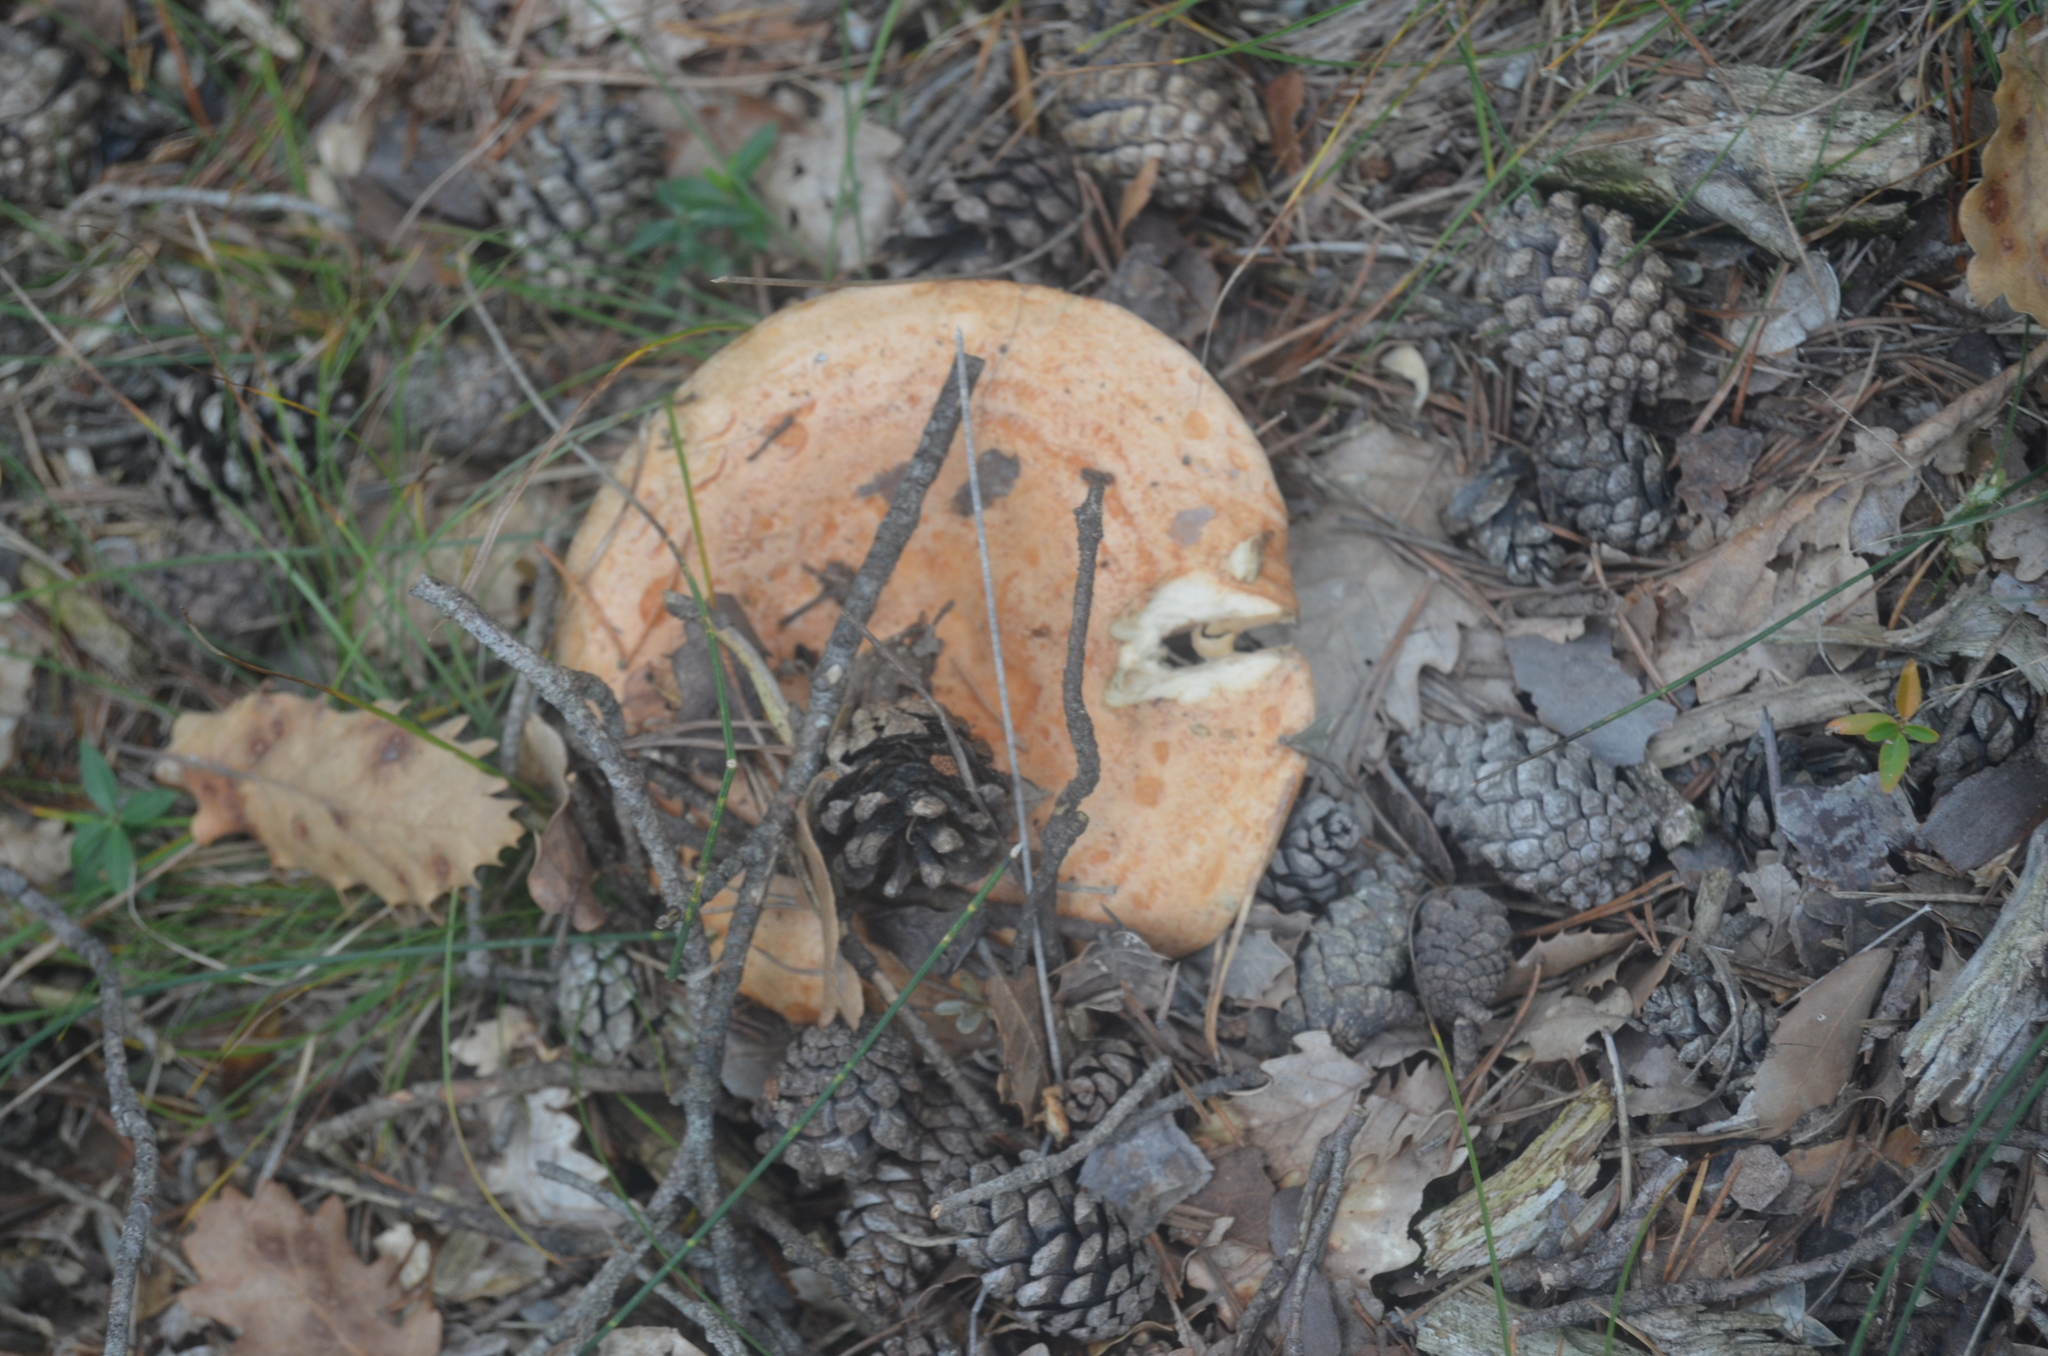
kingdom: Fungi
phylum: Basidiomycota
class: Agaricomycetes
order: Russulales
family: Russulaceae
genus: Lactarius
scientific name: Lactarius deliciosus
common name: Saffron milk-cap
